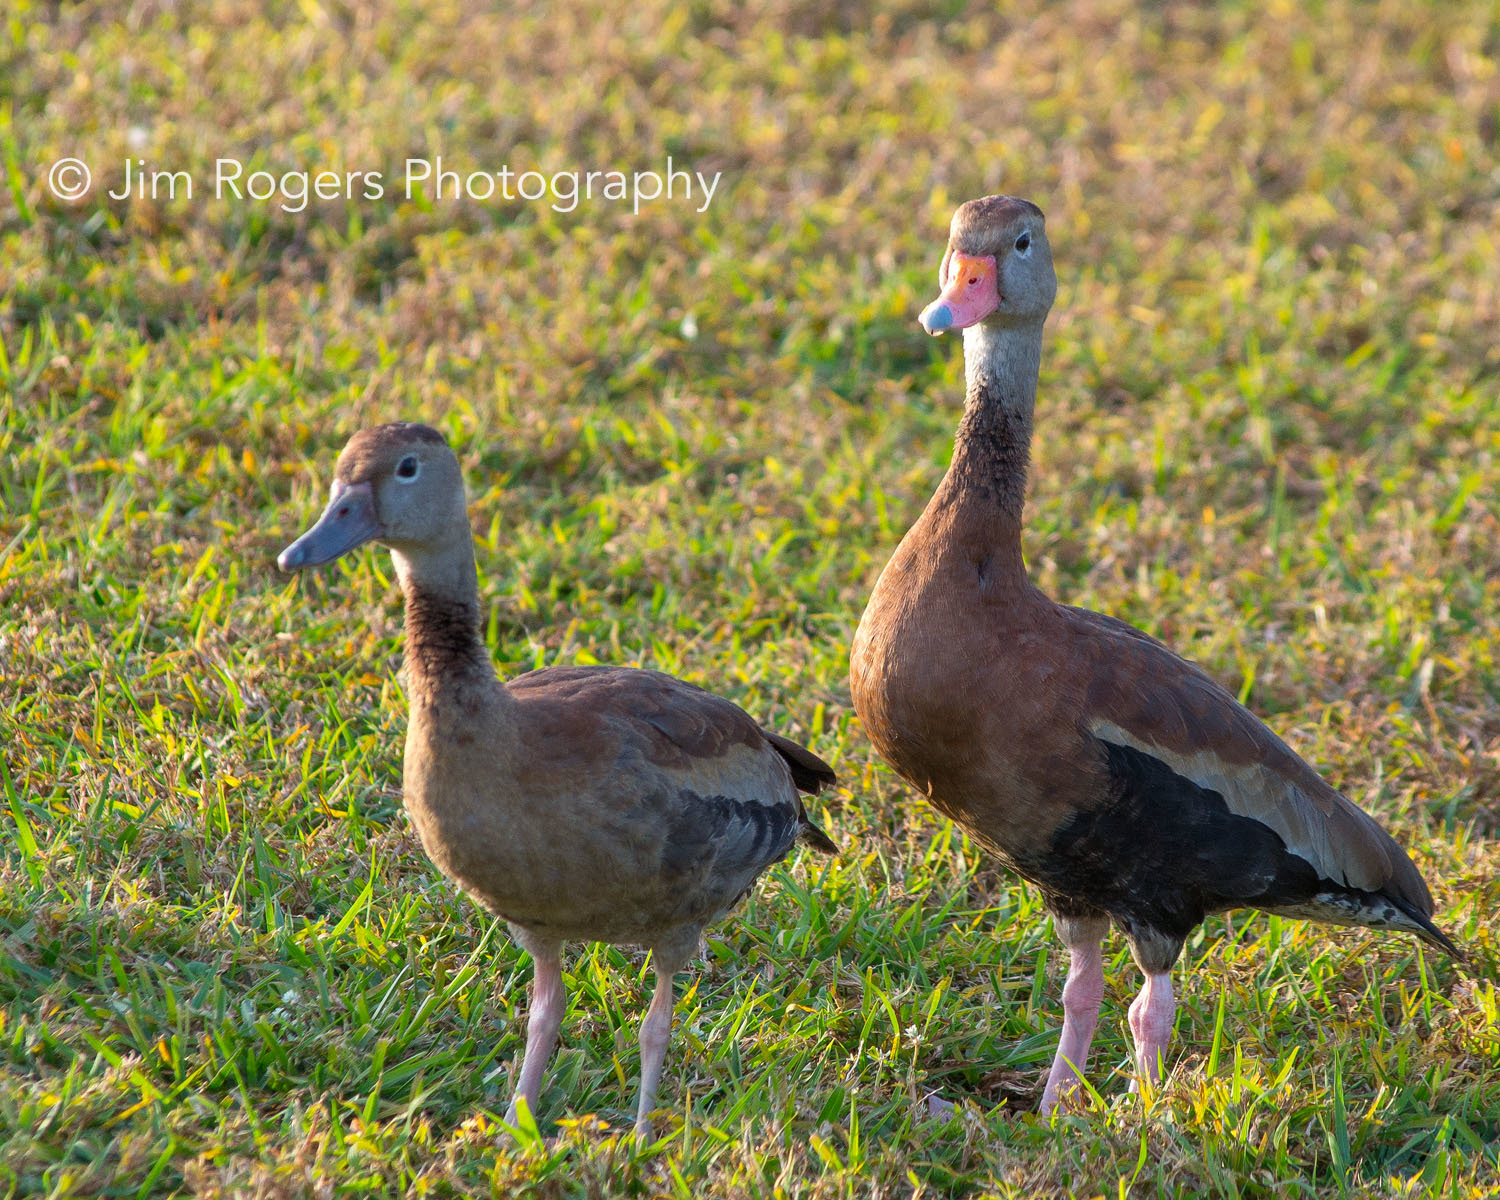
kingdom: Animalia
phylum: Chordata
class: Aves
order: Anseriformes
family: Anatidae
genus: Dendrocygna
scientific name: Dendrocygna autumnalis
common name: Black-bellied whistling duck
